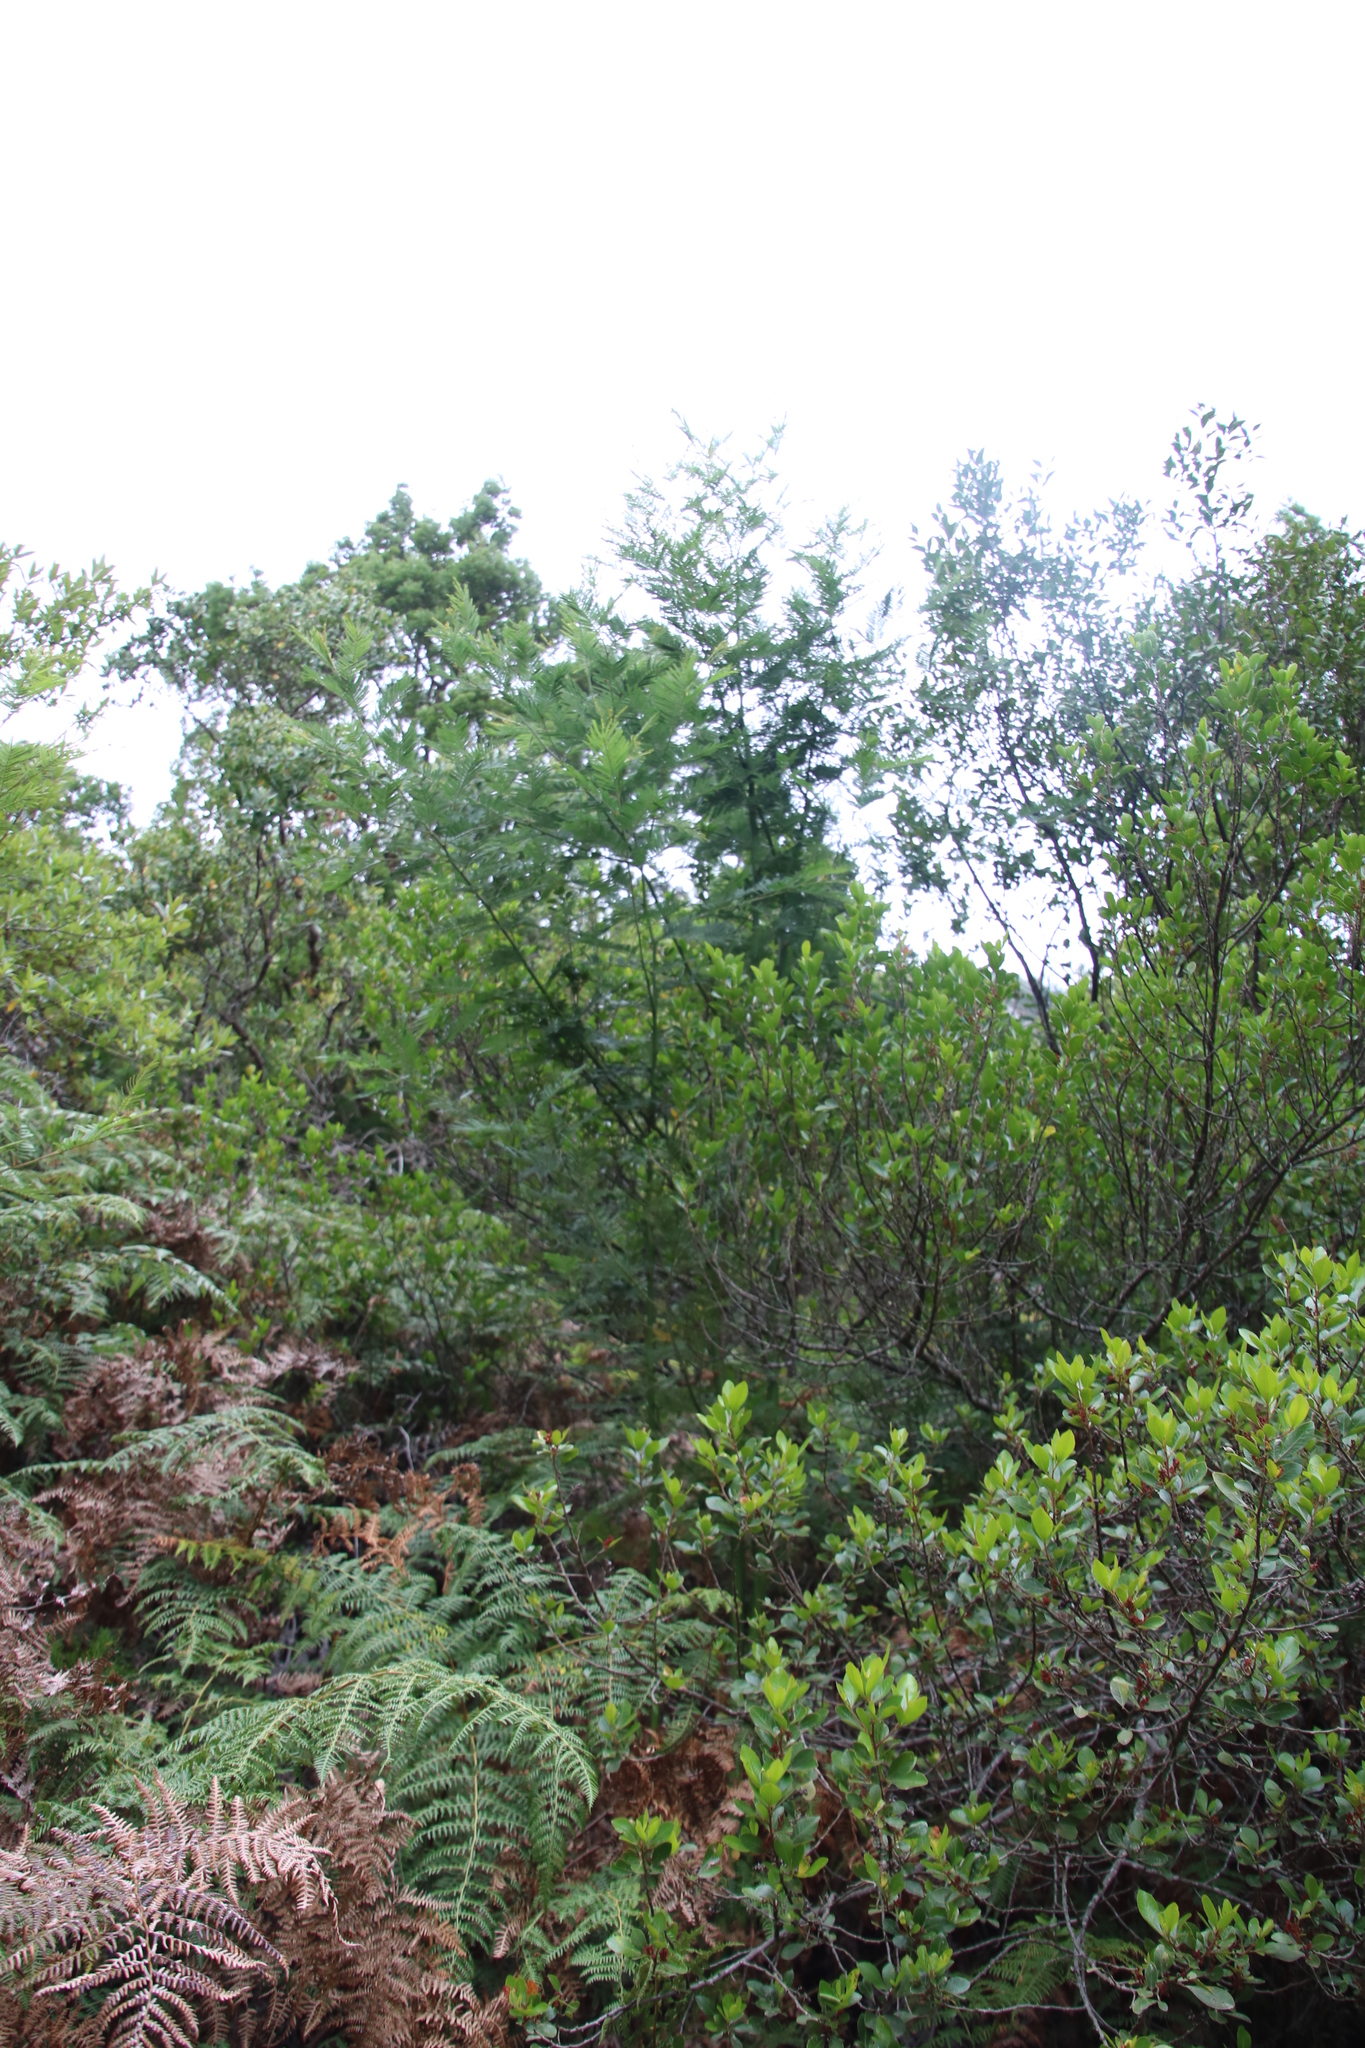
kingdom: Plantae
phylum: Tracheophyta
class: Magnoliopsida
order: Fabales
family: Fabaceae
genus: Acacia
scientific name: Acacia mearnsii
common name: Black wattle
